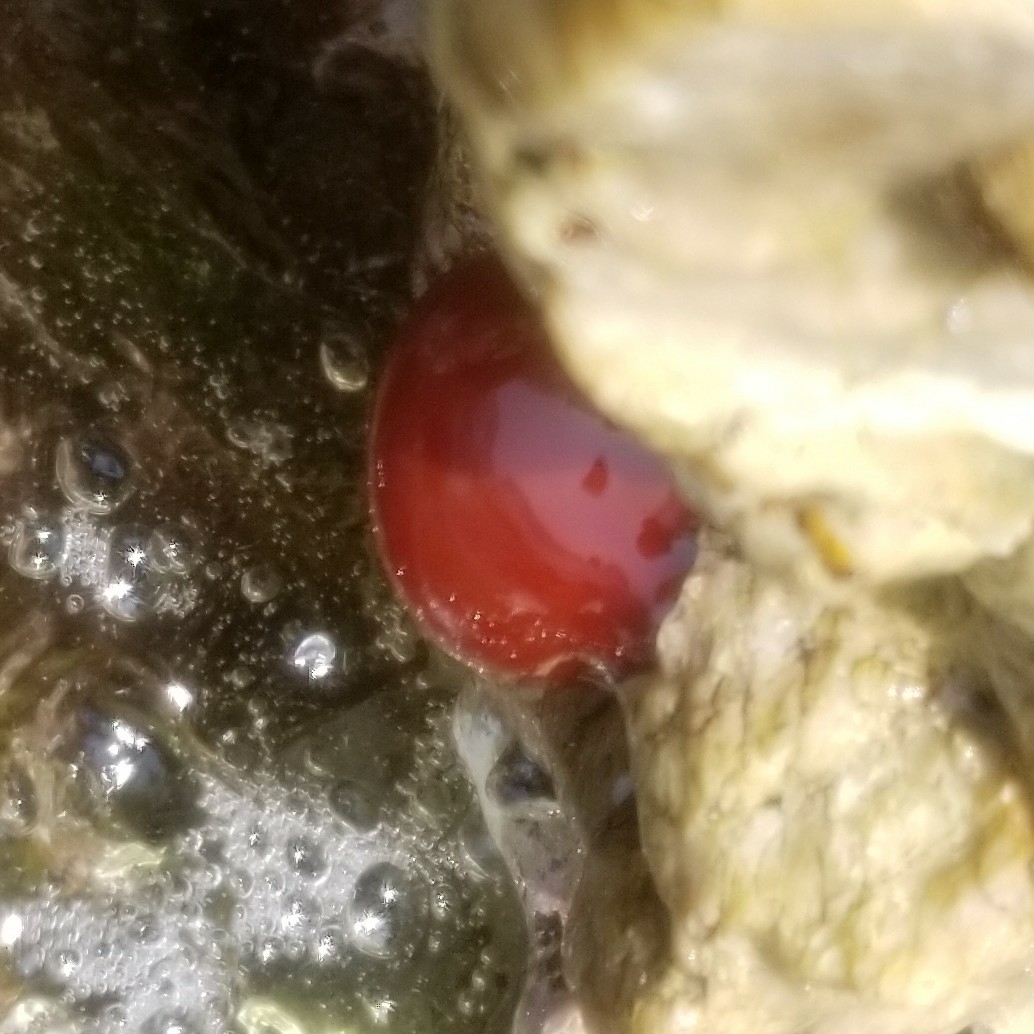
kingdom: Animalia
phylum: Cnidaria
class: Anthozoa
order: Actiniaria
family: Actiniidae
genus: Actinia
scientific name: Actinia mediterranea
